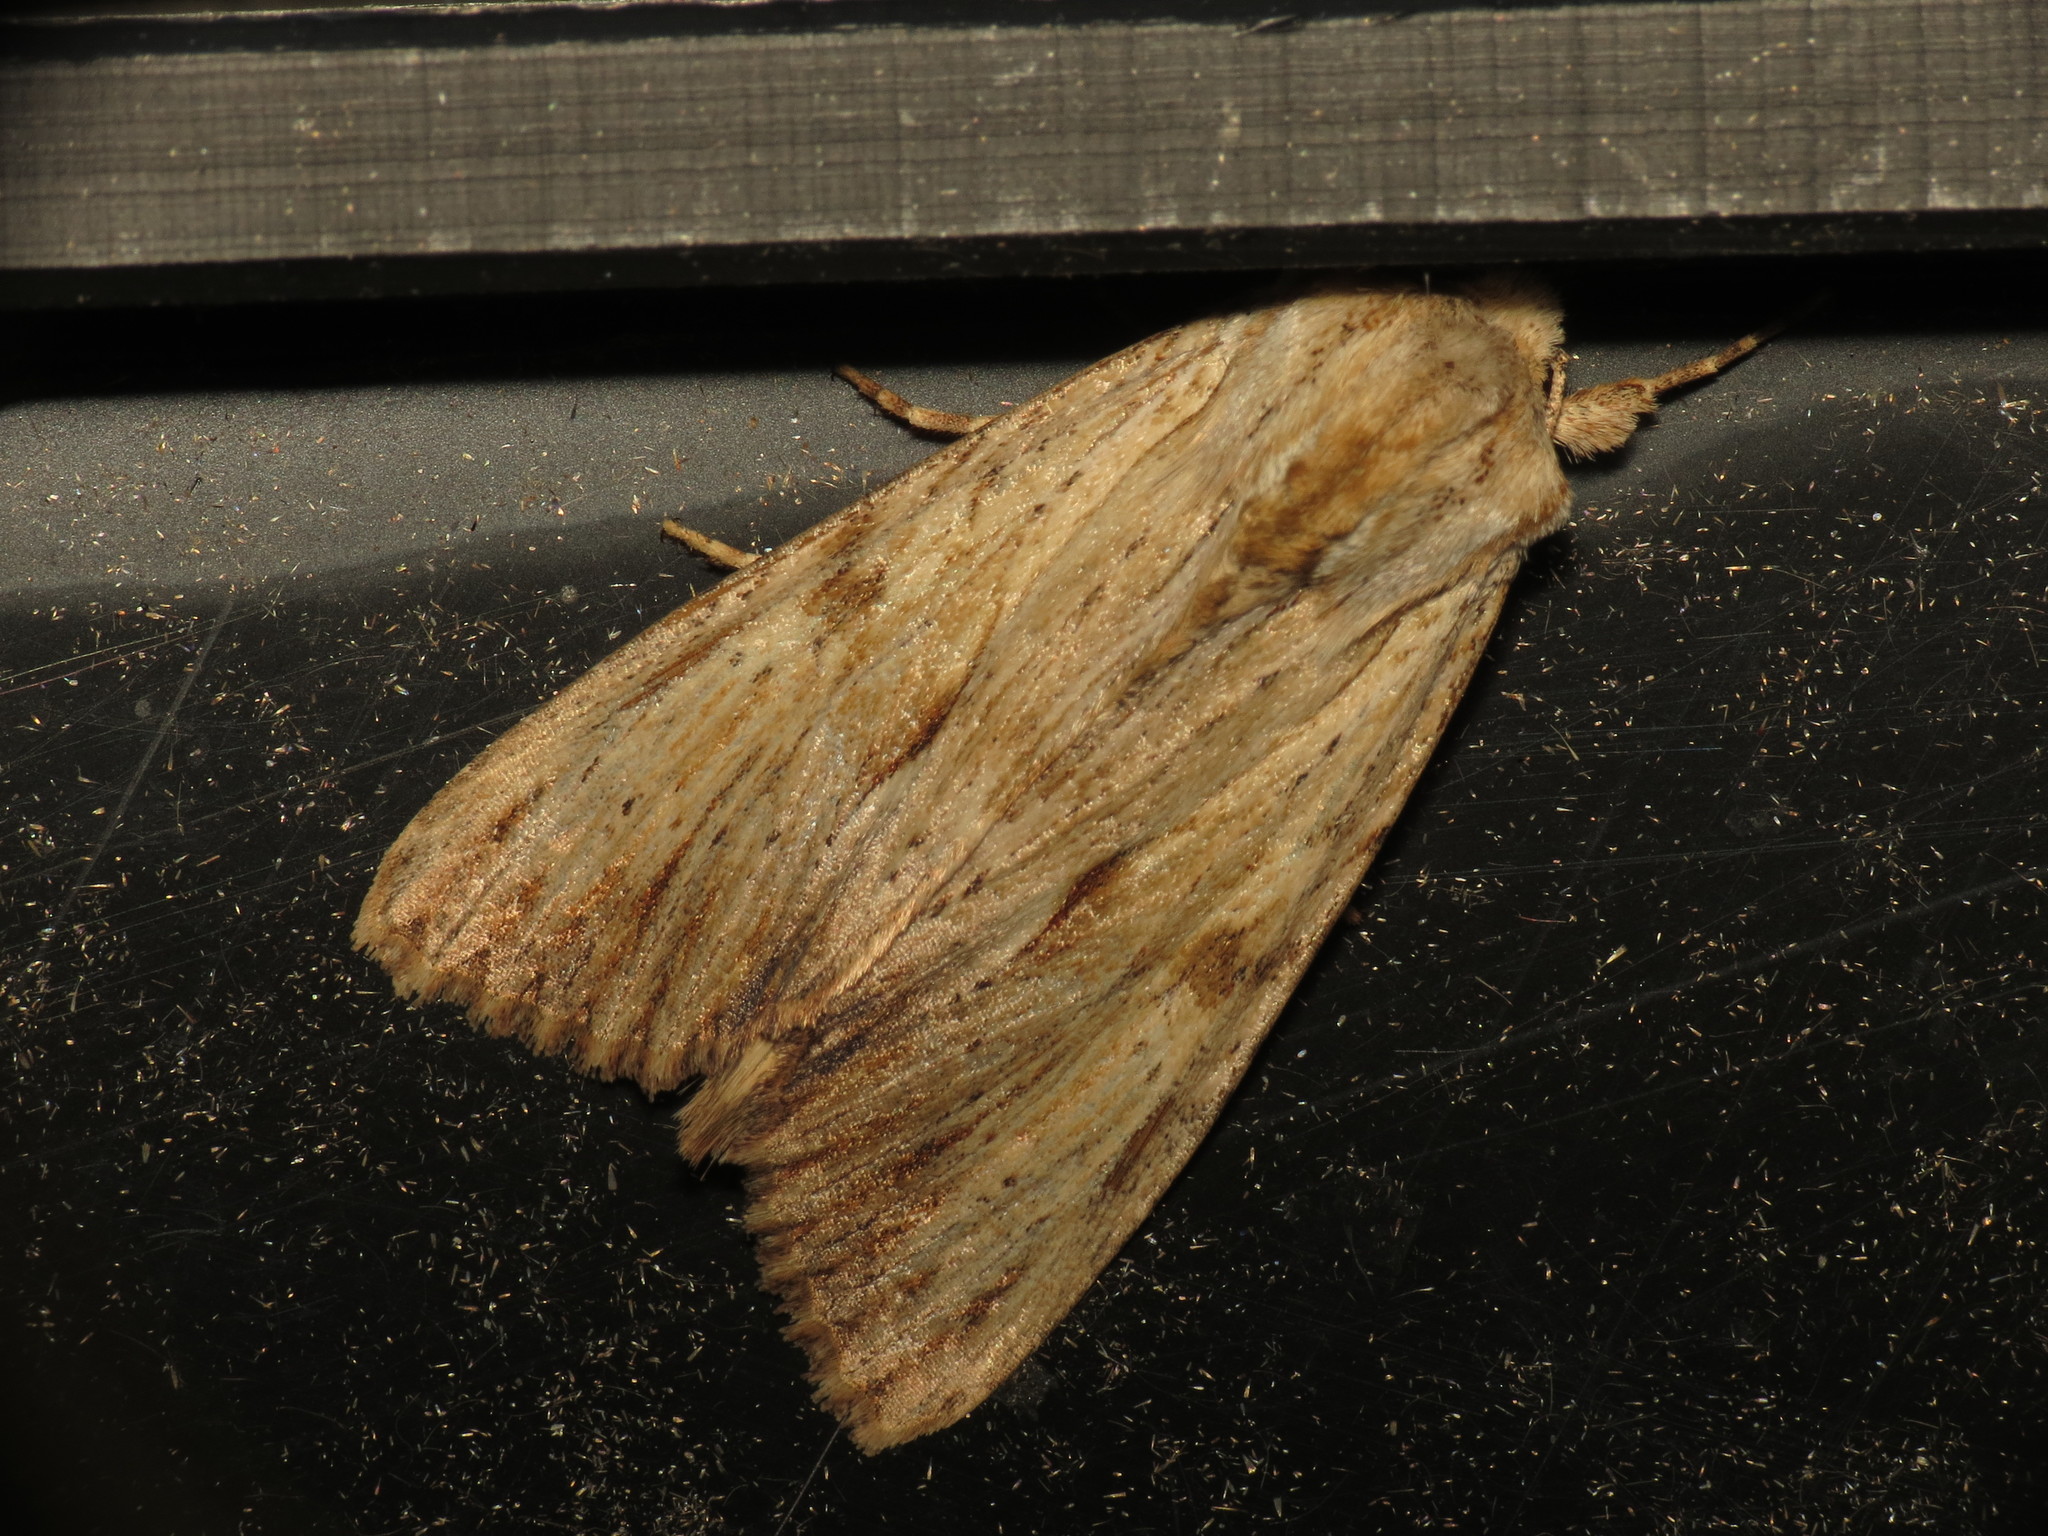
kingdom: Animalia
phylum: Arthropoda
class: Insecta
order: Lepidoptera
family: Noctuidae
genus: Apamea
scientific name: Apamea lithoxylaea
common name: Light arches
